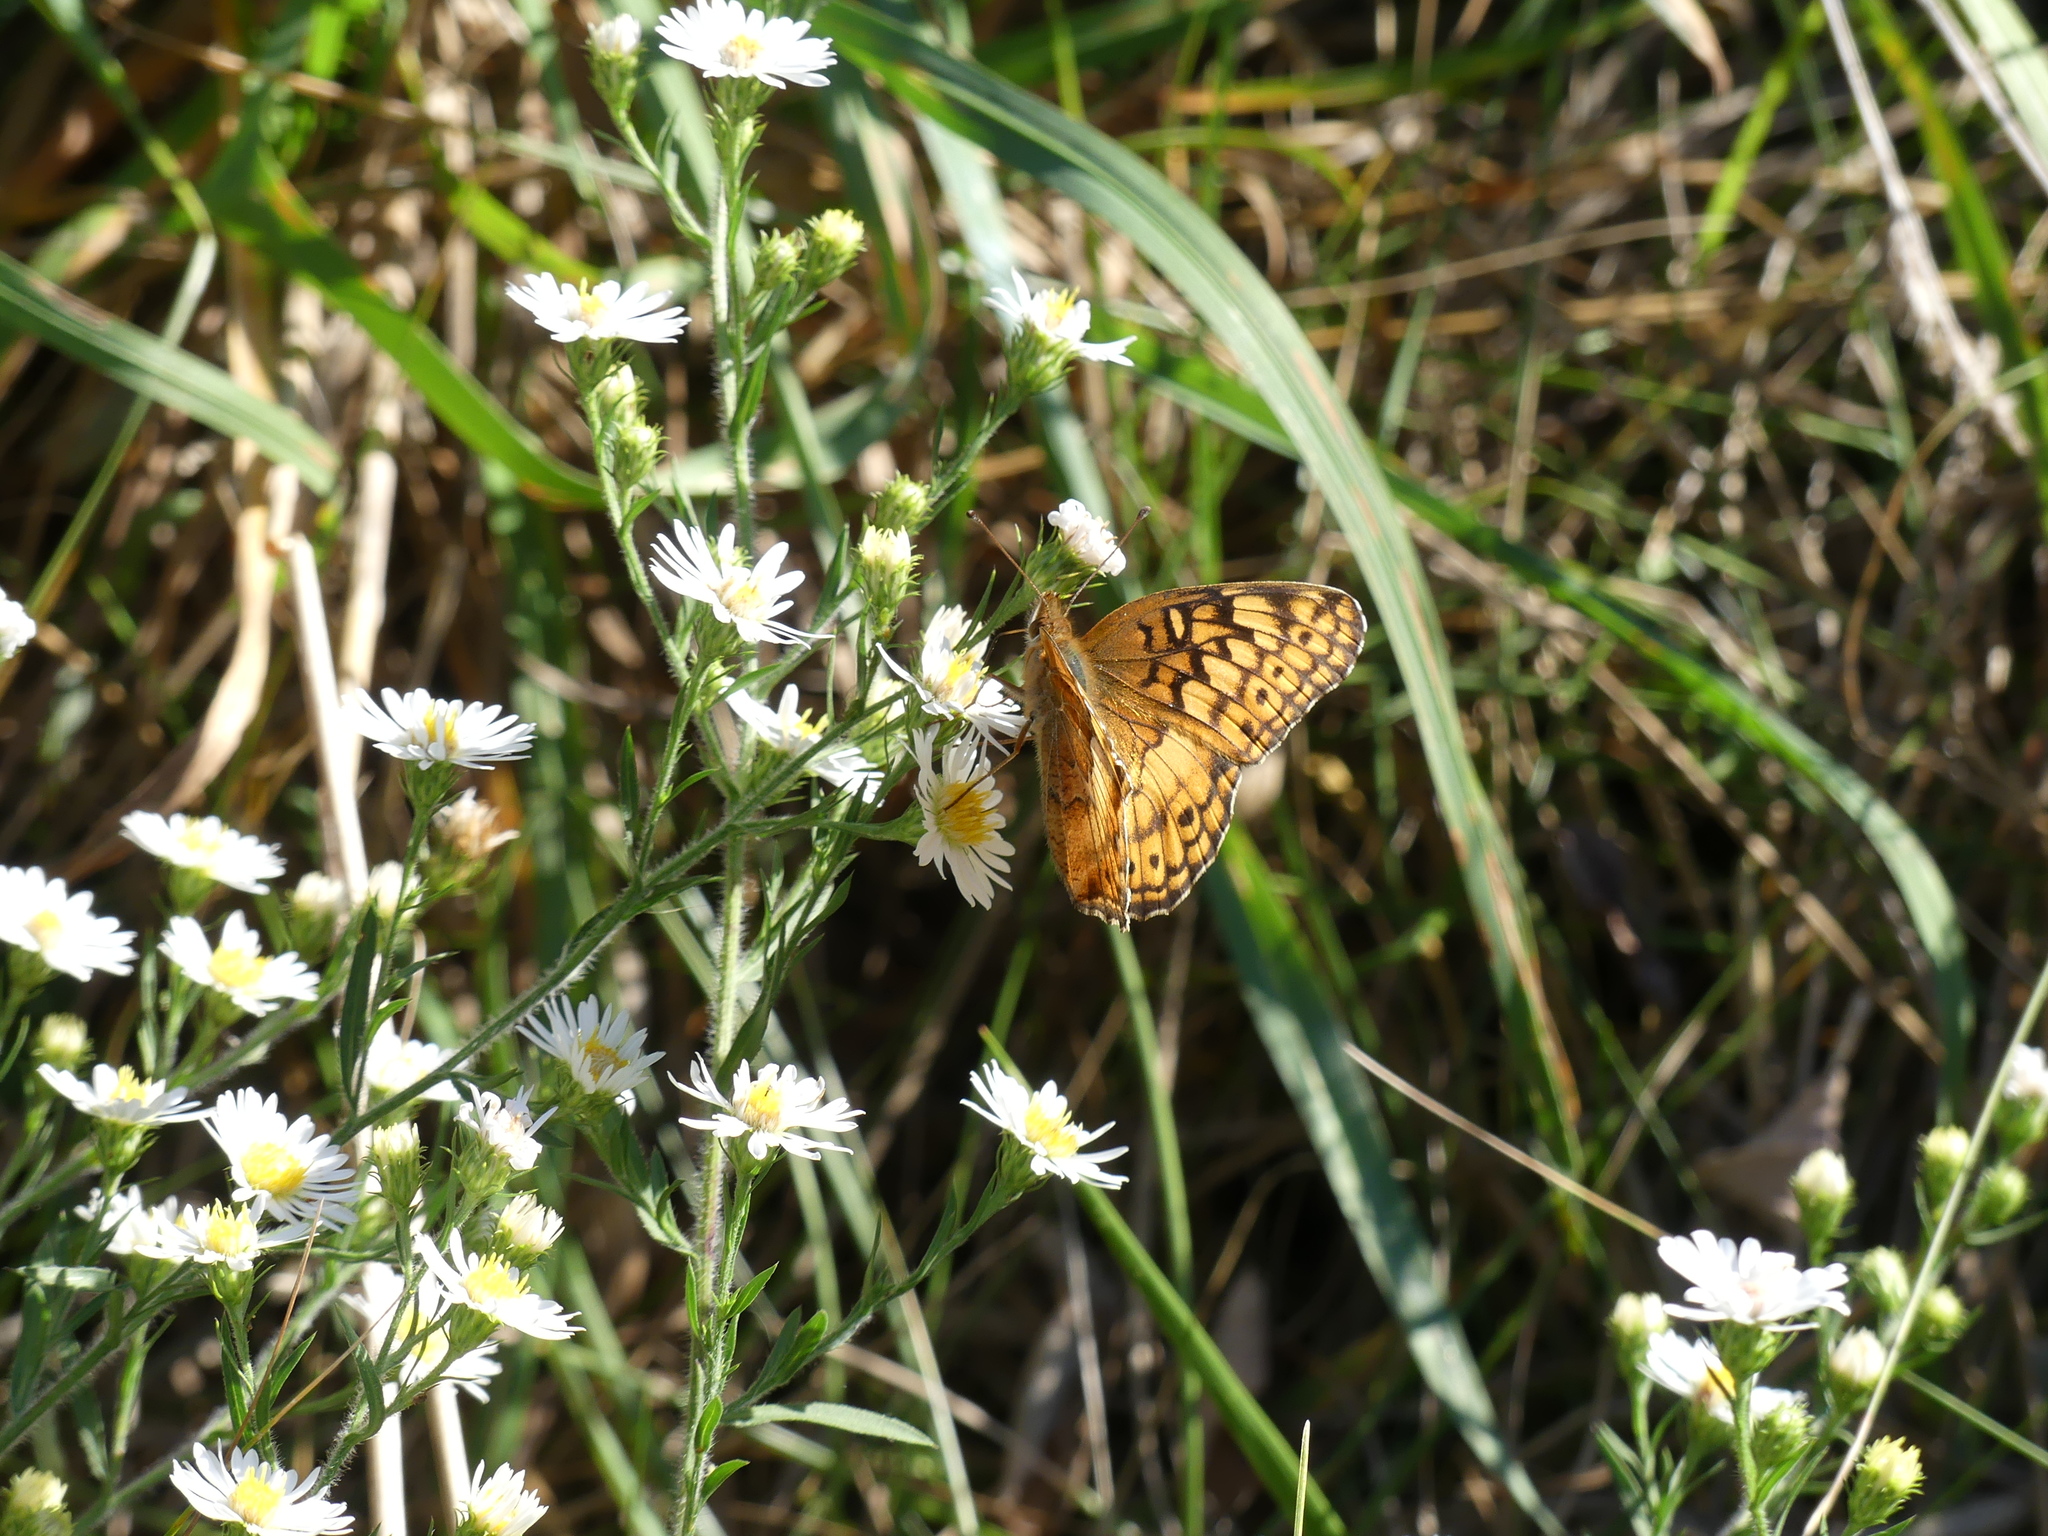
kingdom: Animalia
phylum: Arthropoda
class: Insecta
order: Lepidoptera
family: Nymphalidae
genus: Euptoieta
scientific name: Euptoieta claudia
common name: Variegated fritillary
